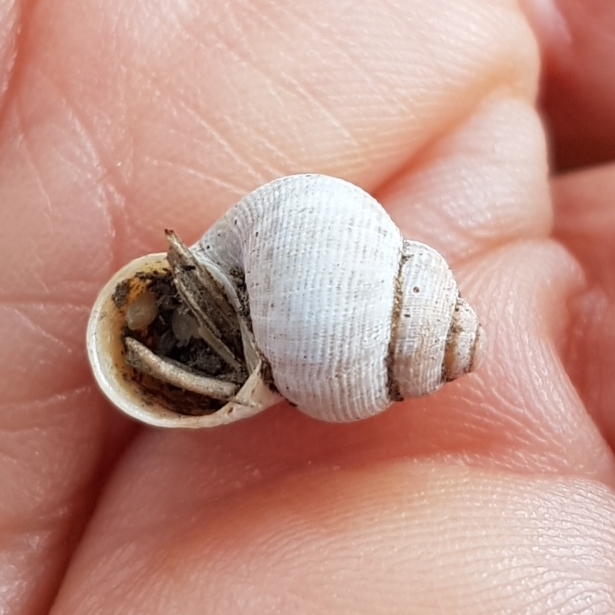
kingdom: Animalia
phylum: Mollusca
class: Gastropoda
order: Littorinimorpha
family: Pomatiidae
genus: Pomatias
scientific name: Pomatias elegans
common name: Red-mouthed snail
